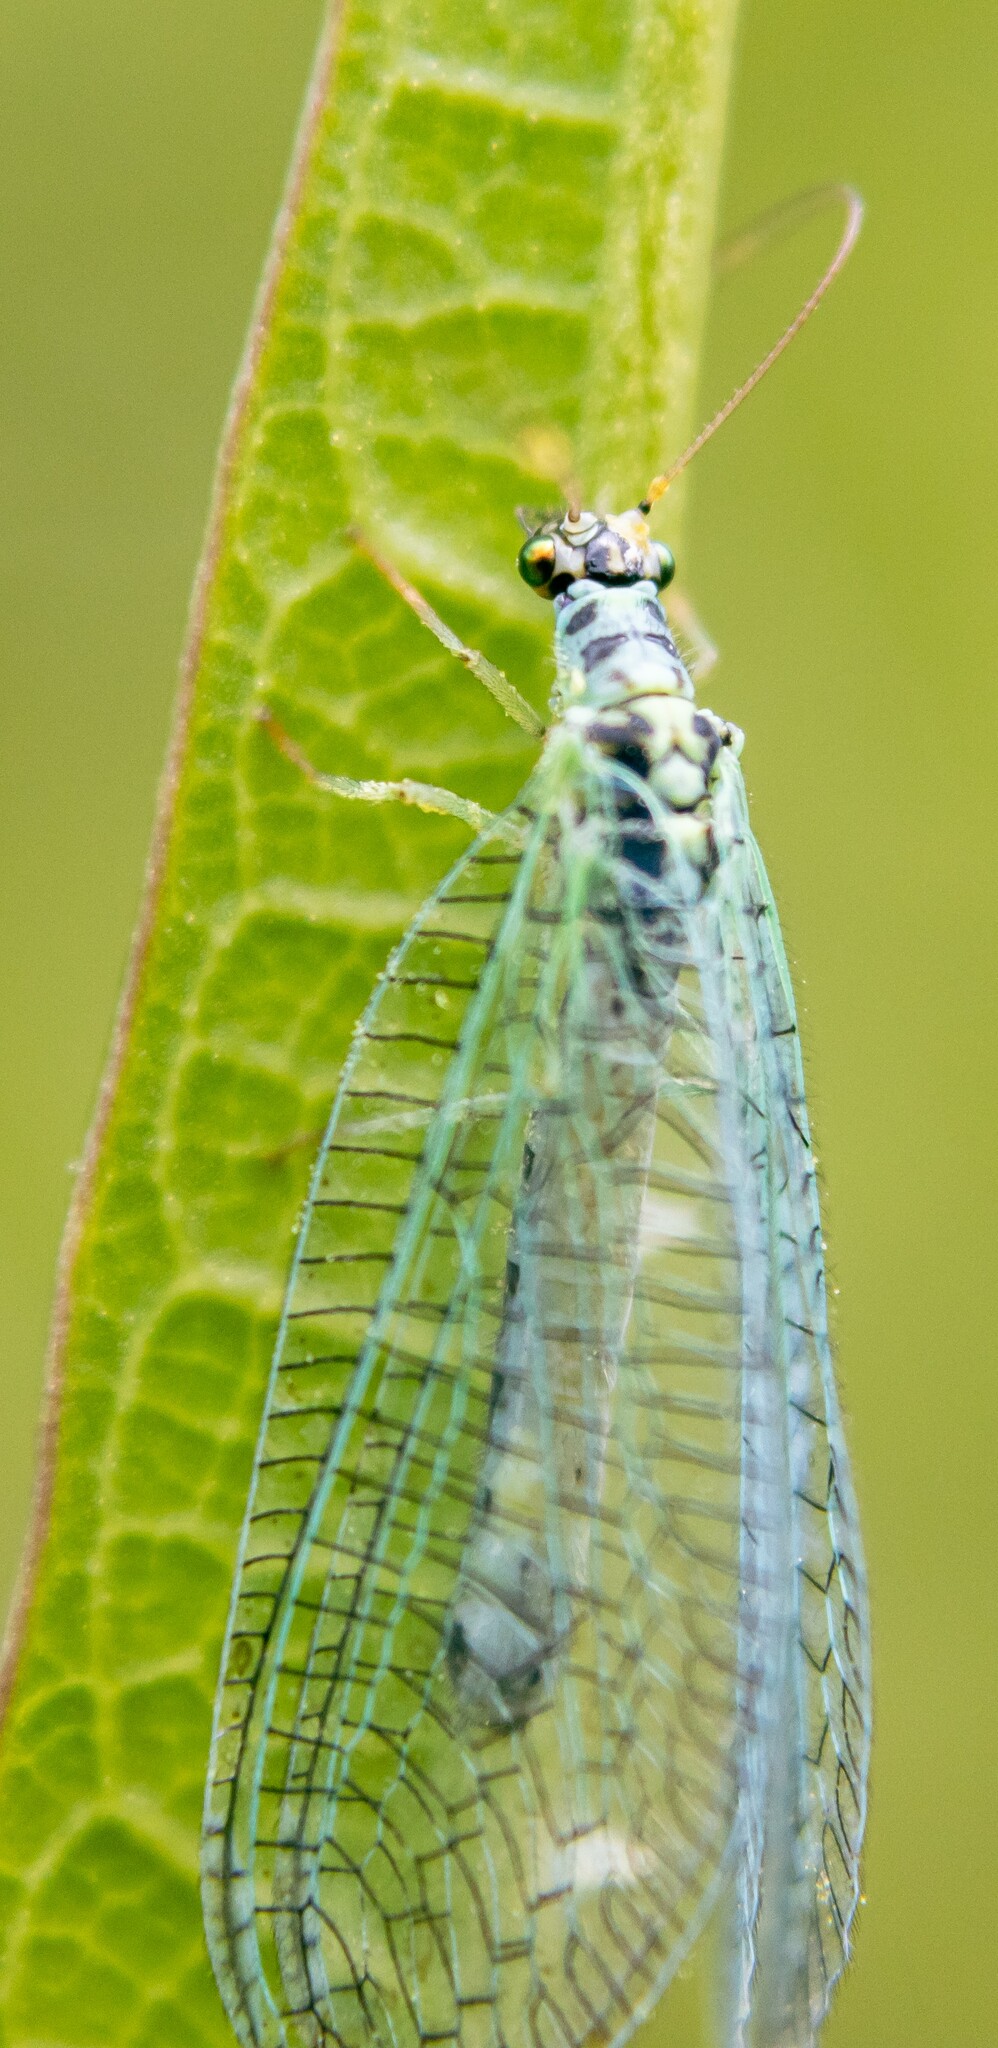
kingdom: Animalia
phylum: Arthropoda
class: Insecta
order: Neuroptera
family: Chrysopidae
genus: Chrysopa
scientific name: Chrysopa perla
